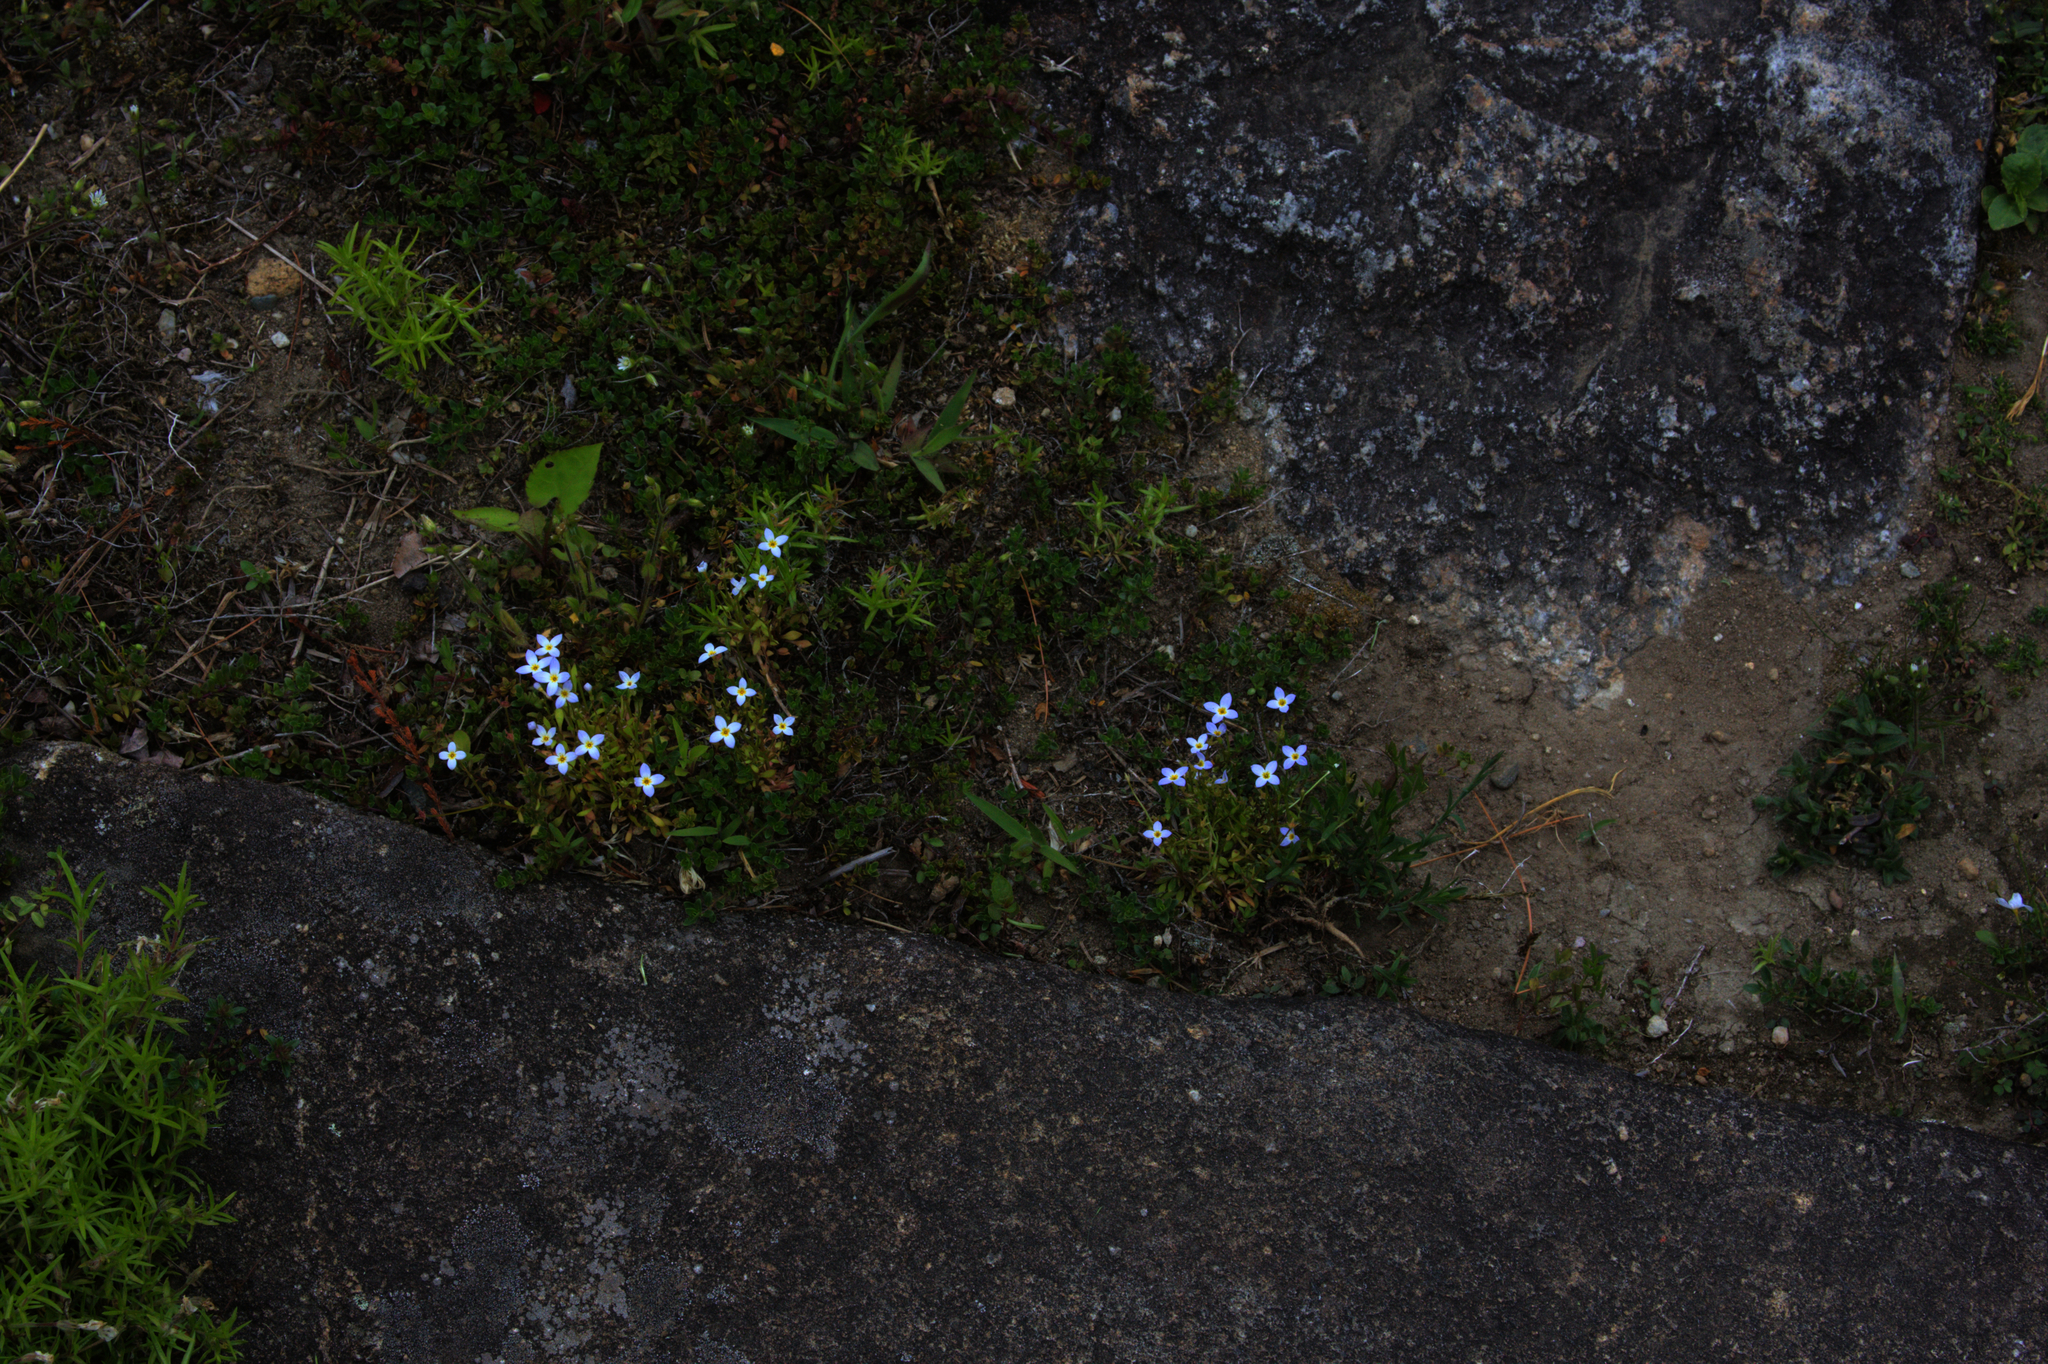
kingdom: Plantae
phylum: Tracheophyta
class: Magnoliopsida
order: Gentianales
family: Rubiaceae
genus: Houstonia
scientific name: Houstonia caerulea
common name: Bluets
